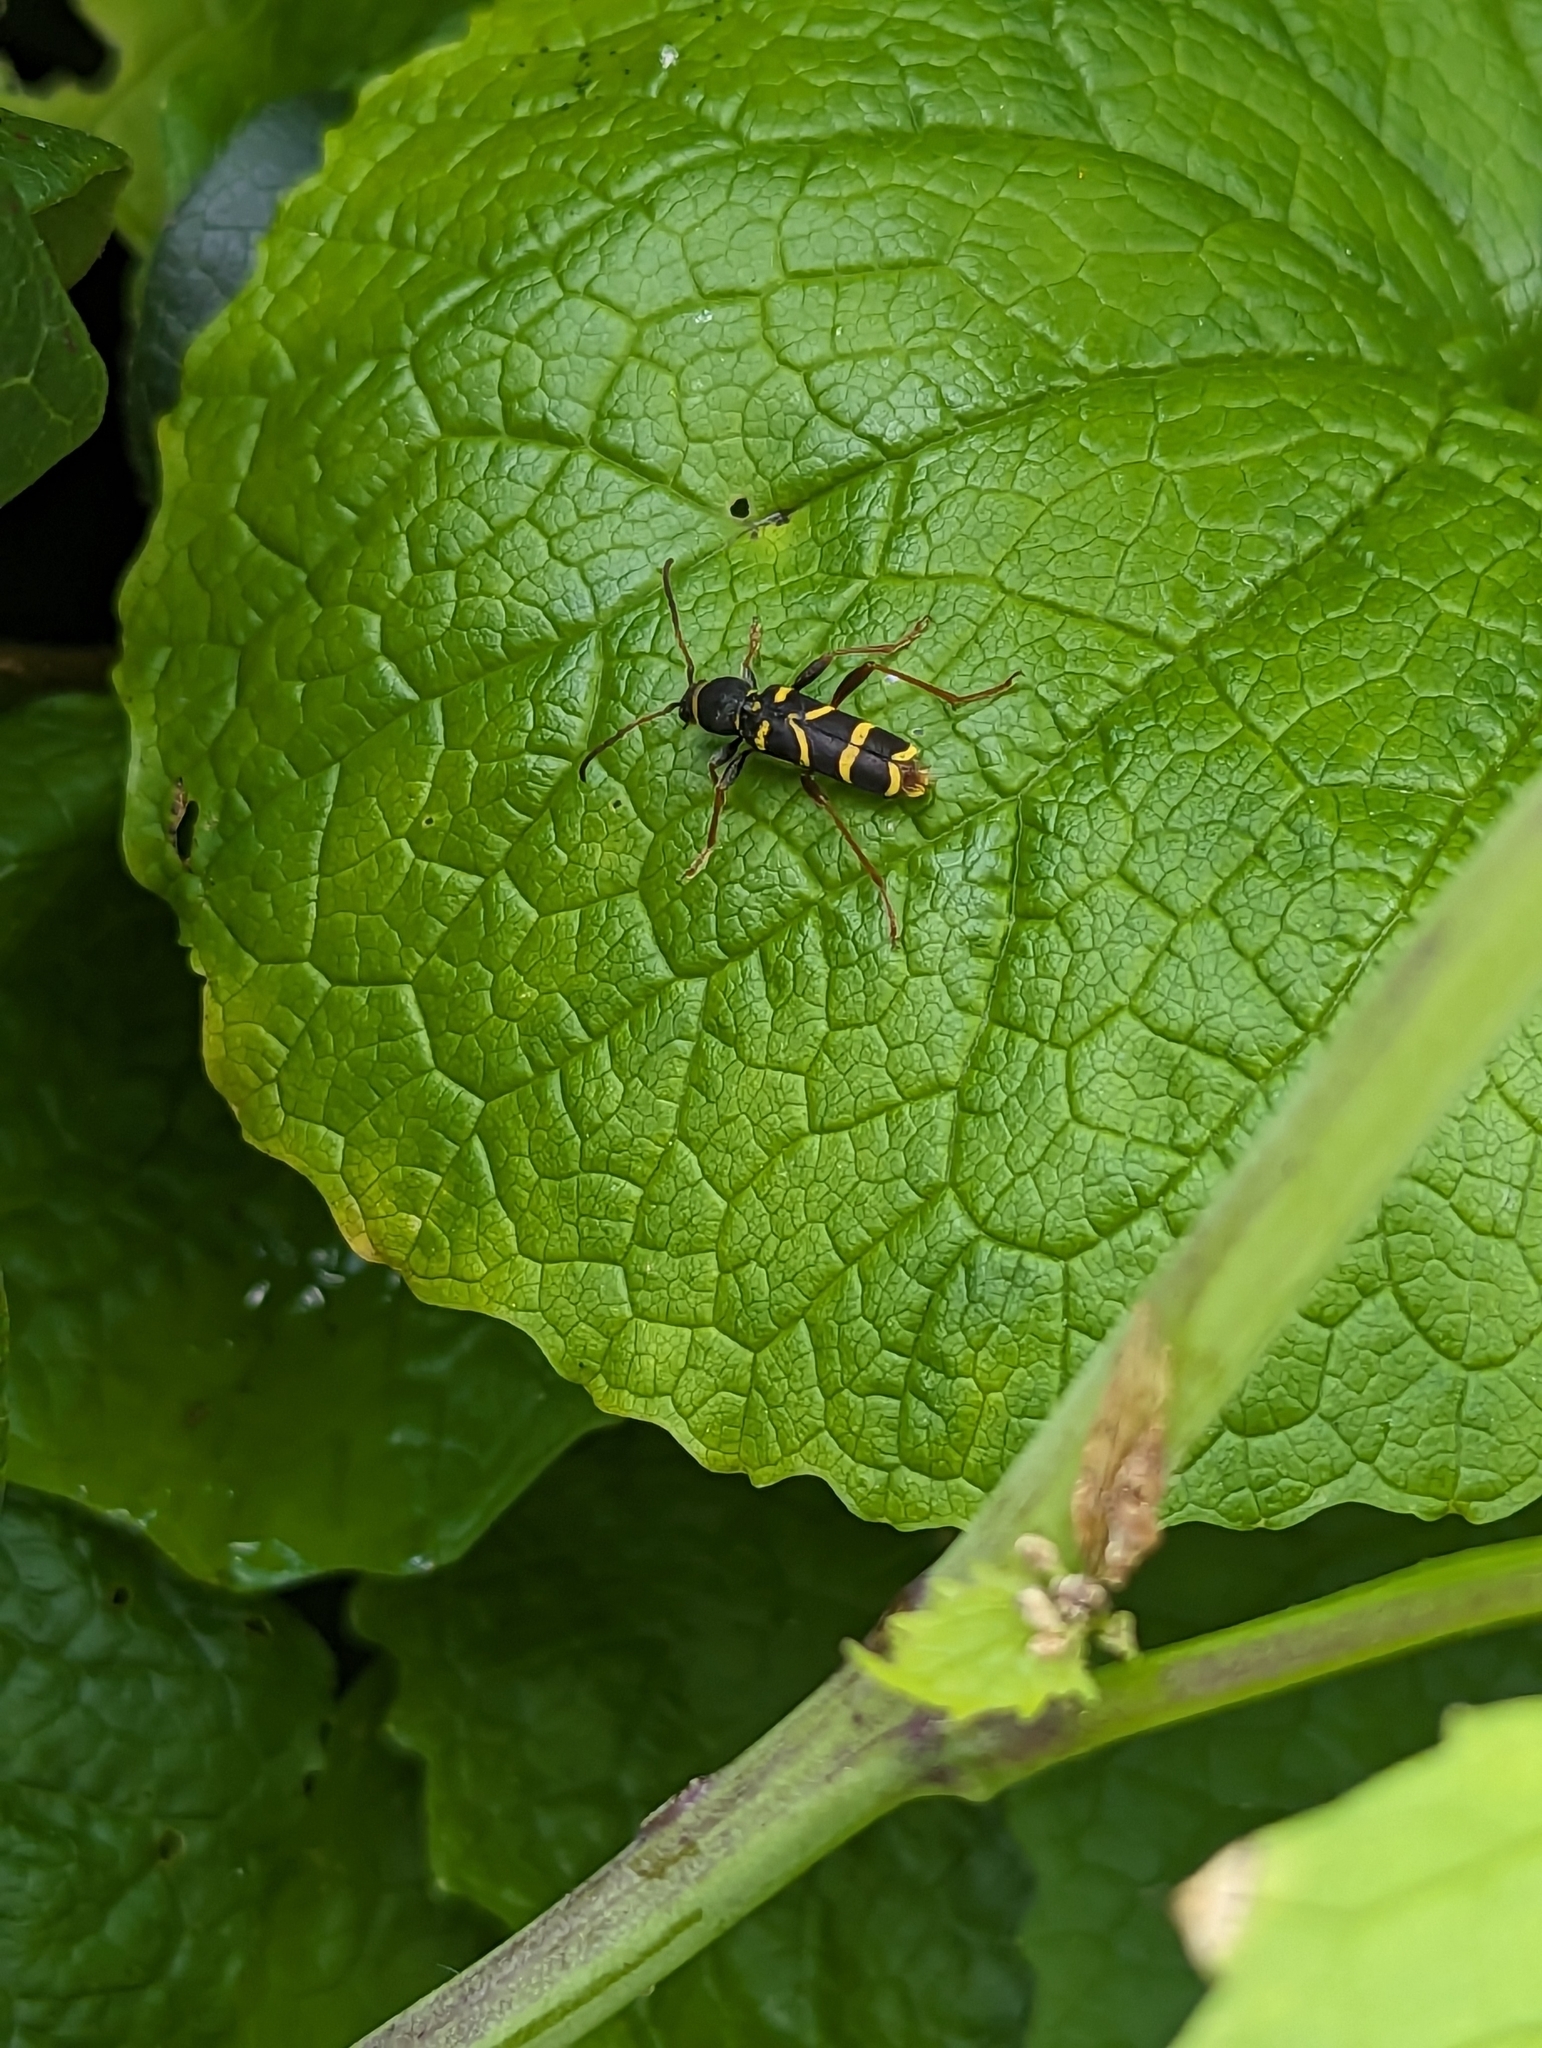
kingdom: Animalia
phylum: Arthropoda
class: Insecta
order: Coleoptera
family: Cerambycidae
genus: Clytus
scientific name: Clytus arietis
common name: Wasp beetle
